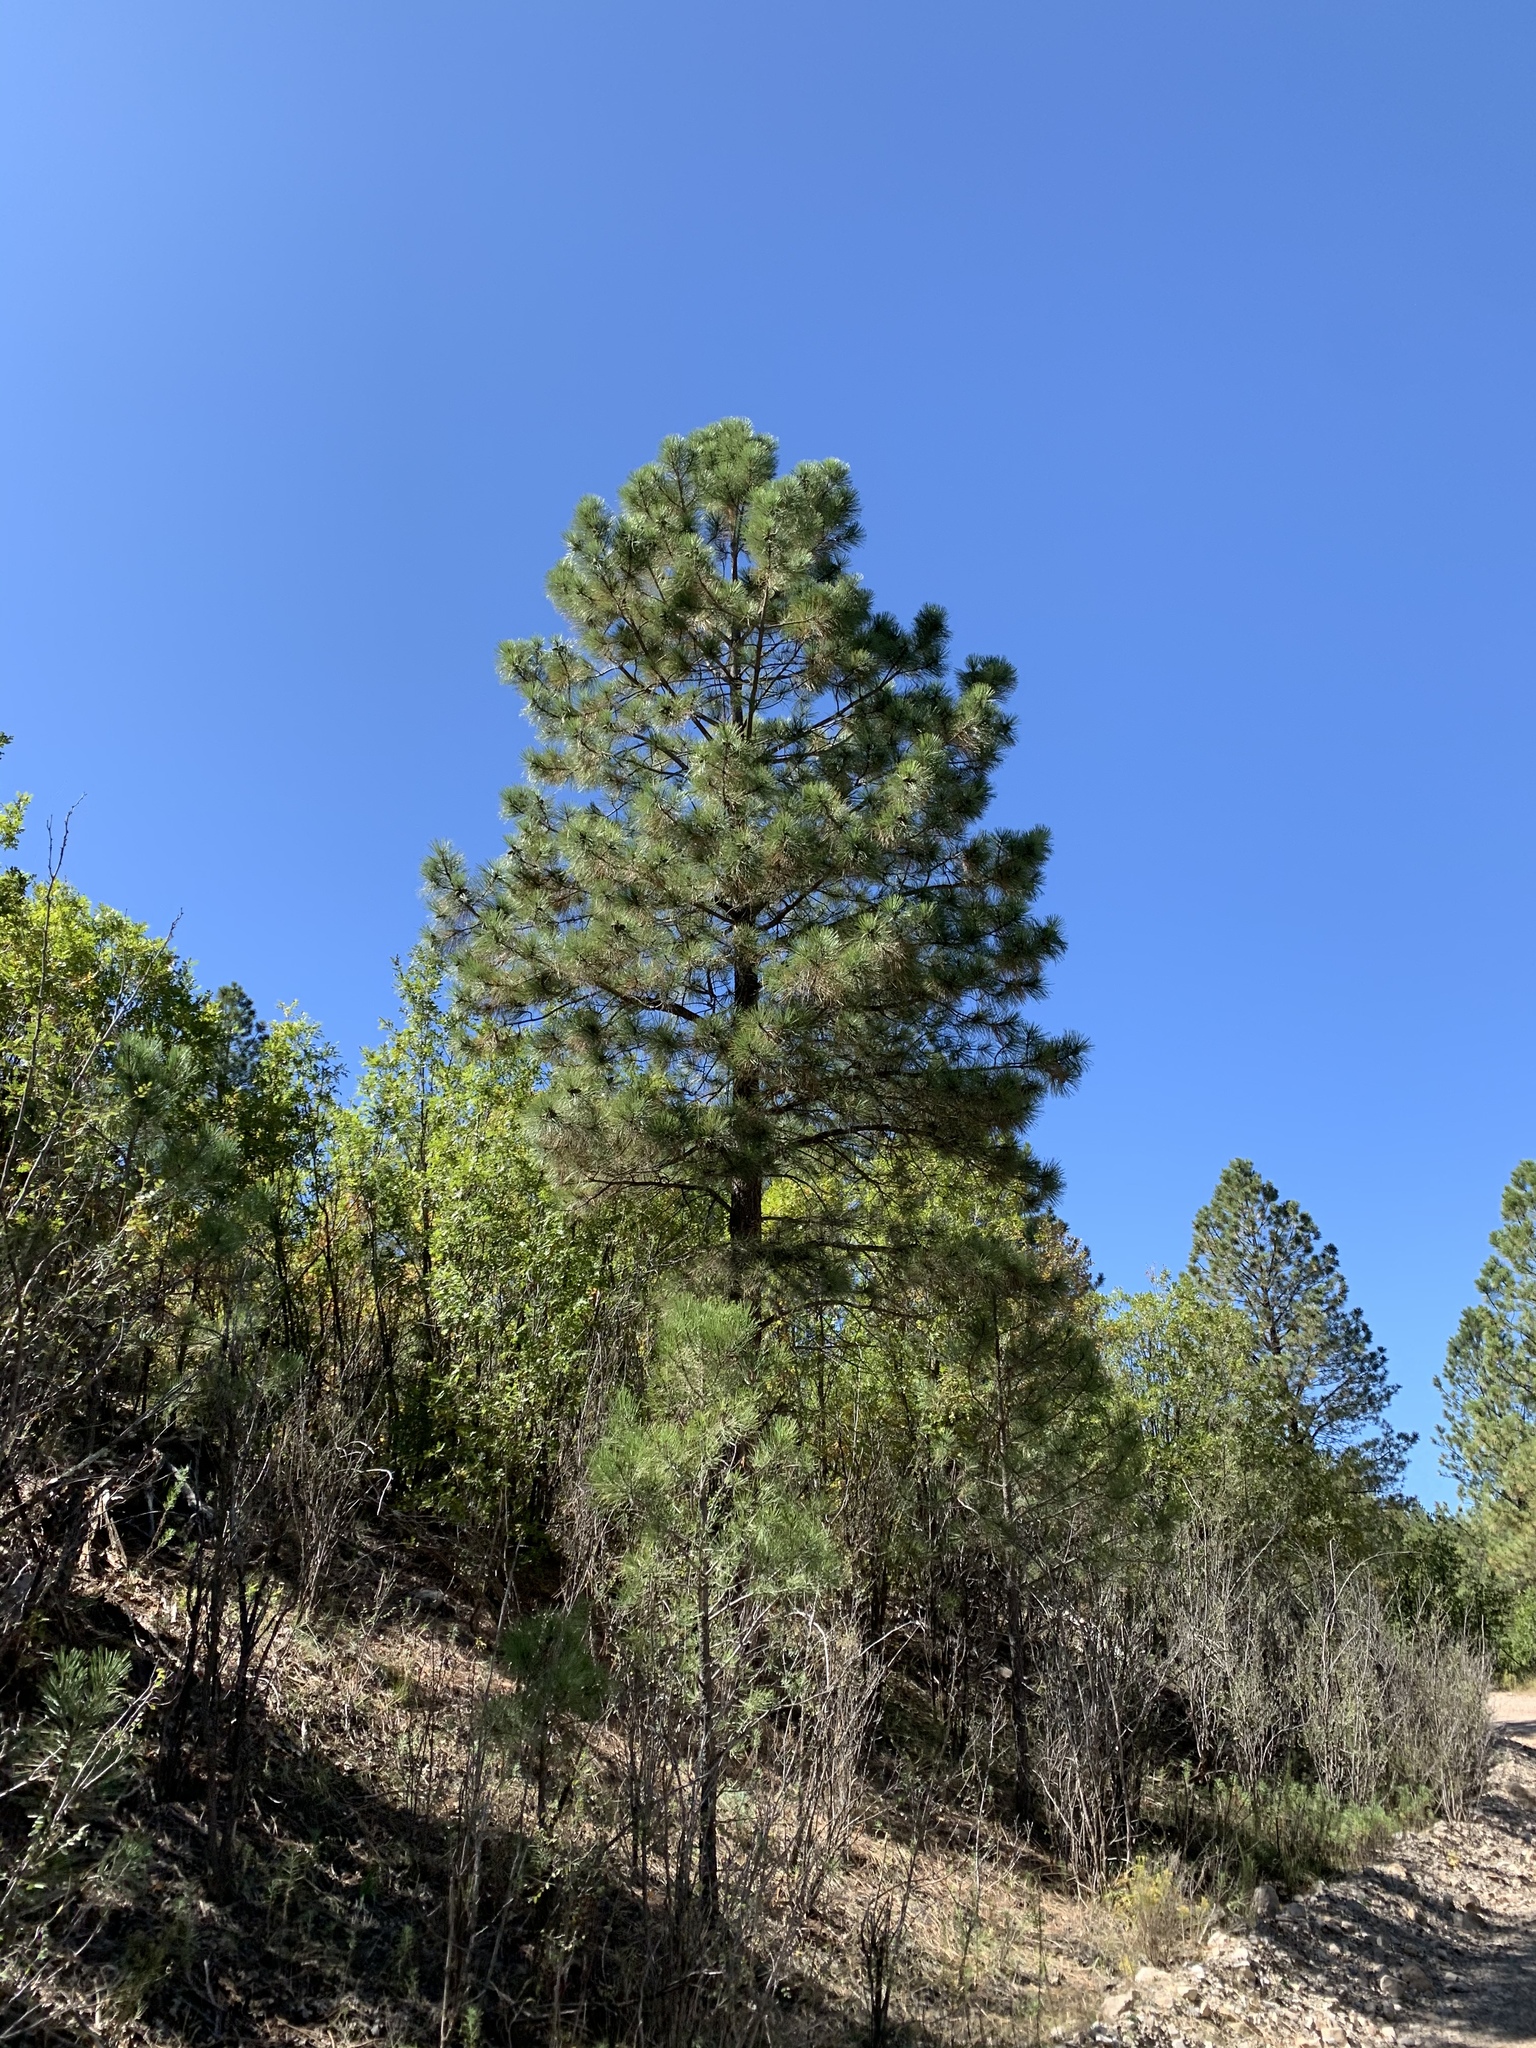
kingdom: Plantae
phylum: Tracheophyta
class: Pinopsida
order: Pinales
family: Pinaceae
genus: Pinus
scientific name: Pinus ponderosa
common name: Western yellow-pine
